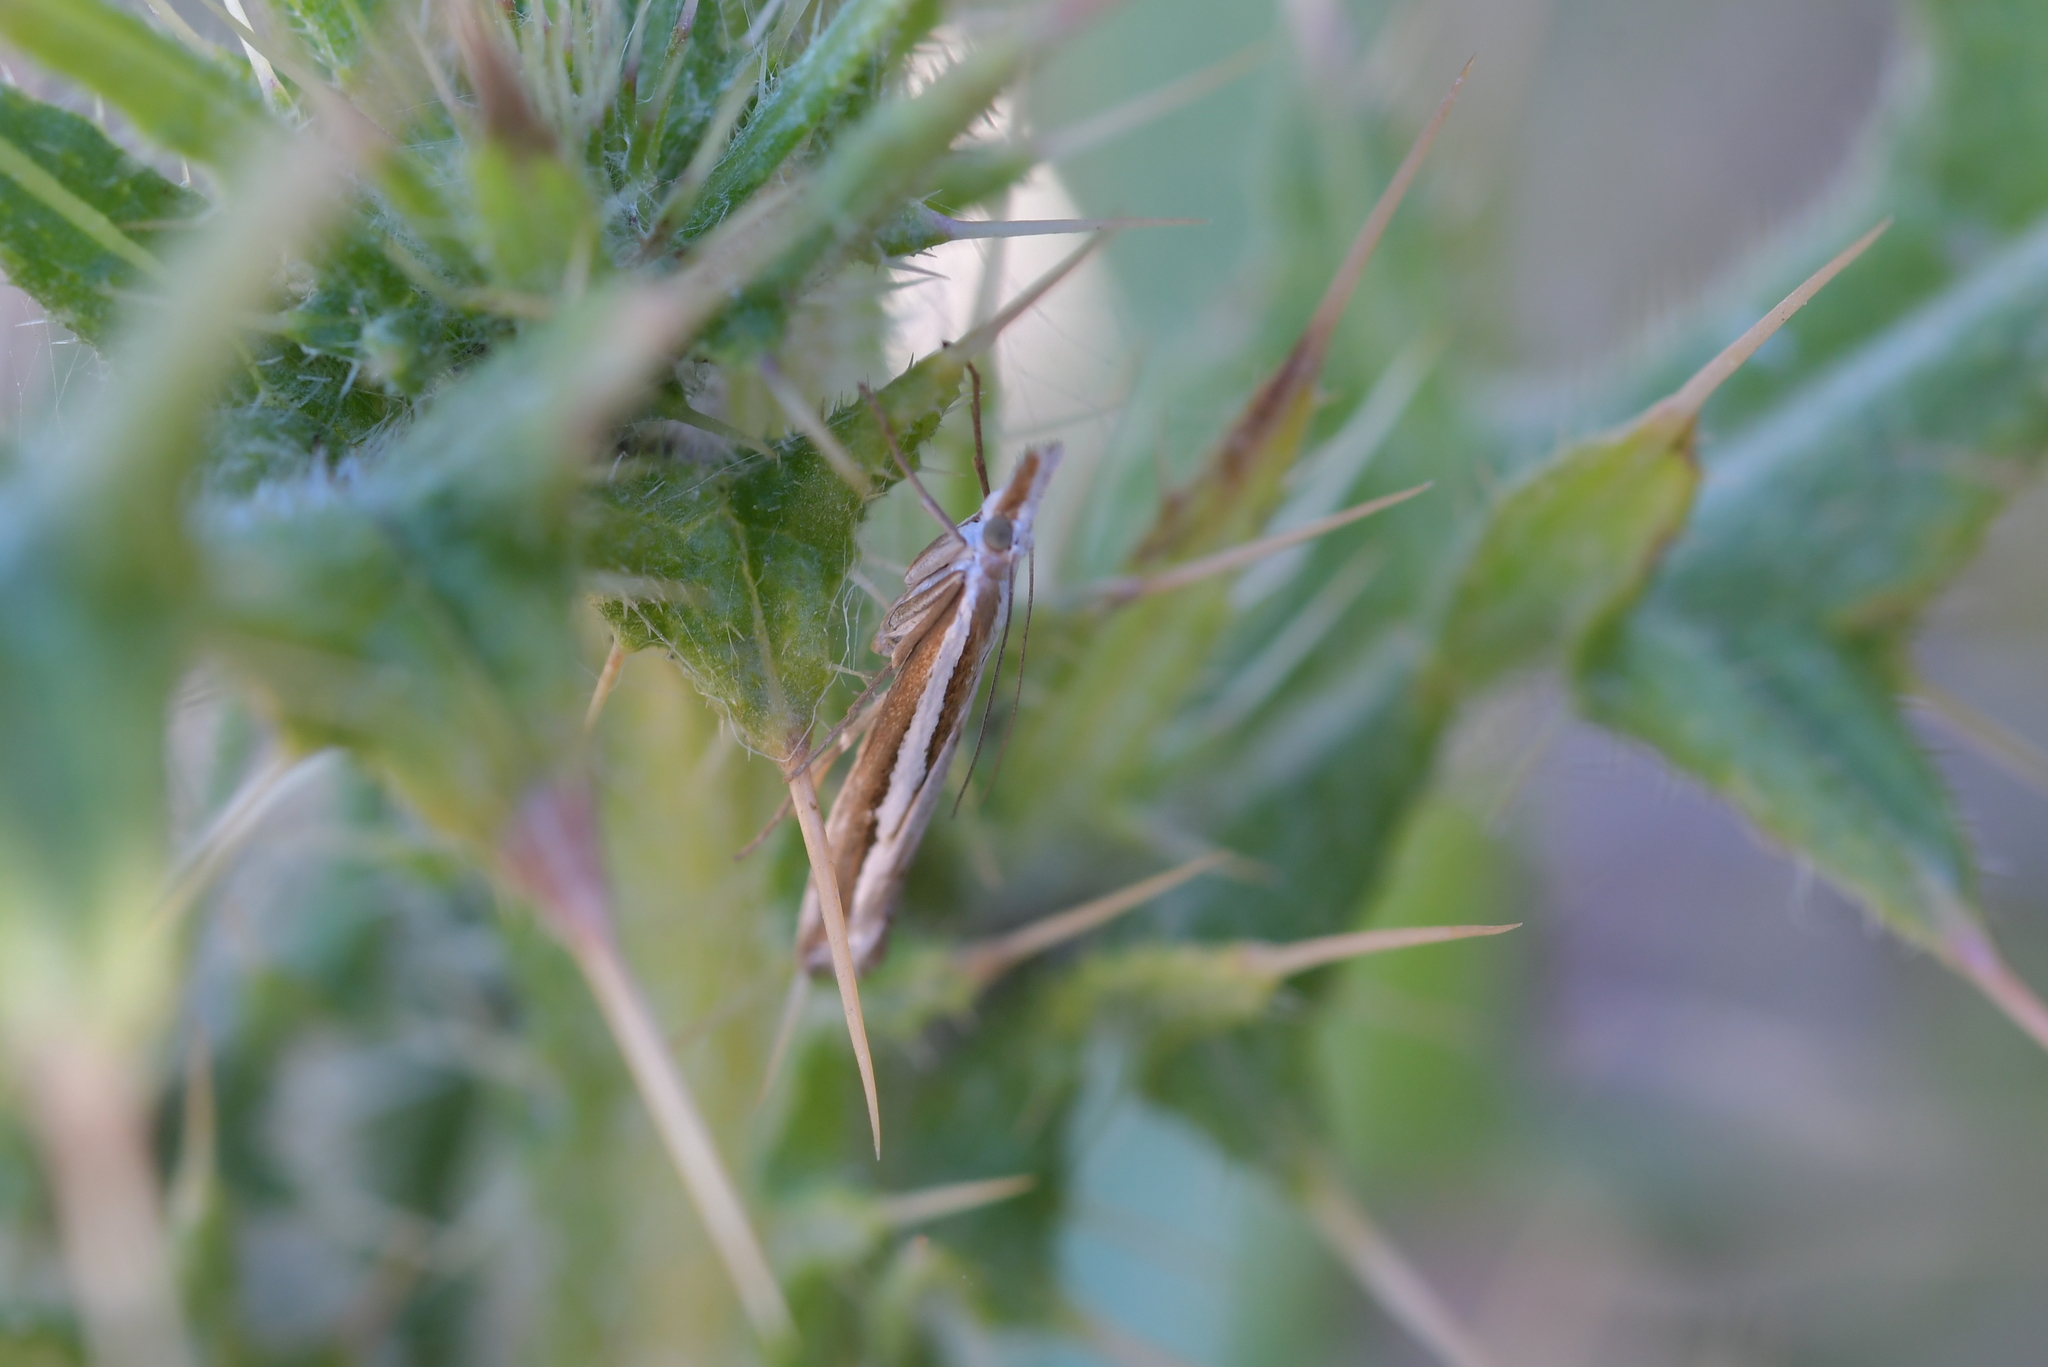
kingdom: Animalia
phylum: Arthropoda
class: Insecta
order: Lepidoptera
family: Crambidae
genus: Orocrambus
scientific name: Orocrambus vittellus
